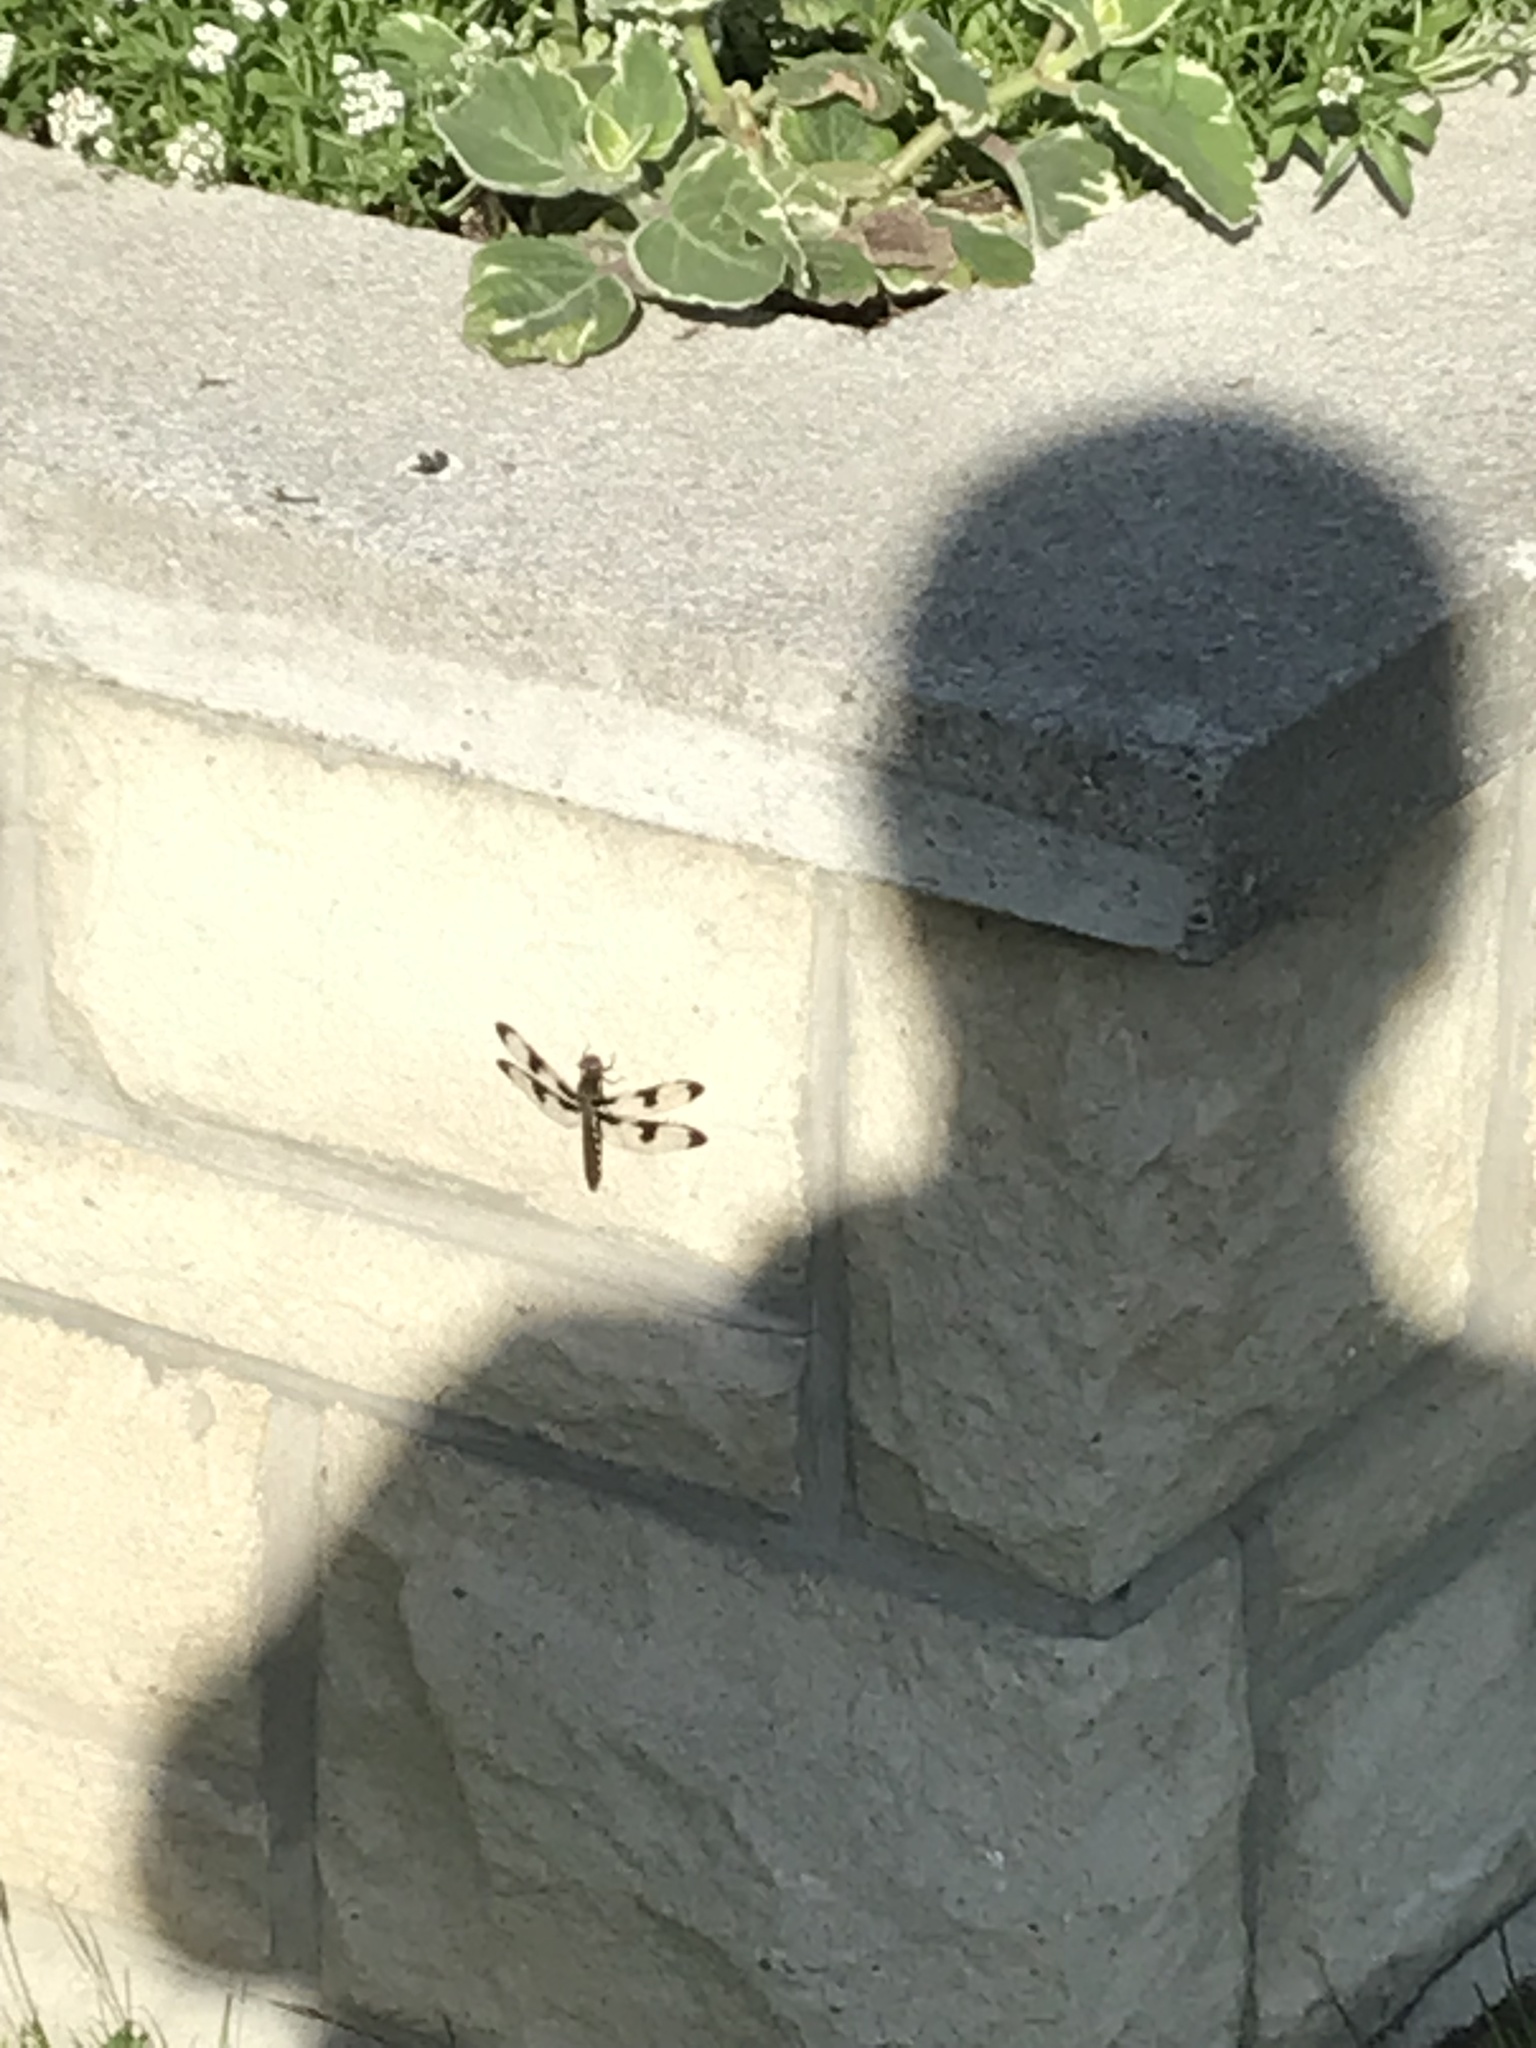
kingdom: Animalia
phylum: Arthropoda
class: Insecta
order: Odonata
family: Libellulidae
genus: Plathemis
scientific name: Plathemis lydia
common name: Common whitetail
